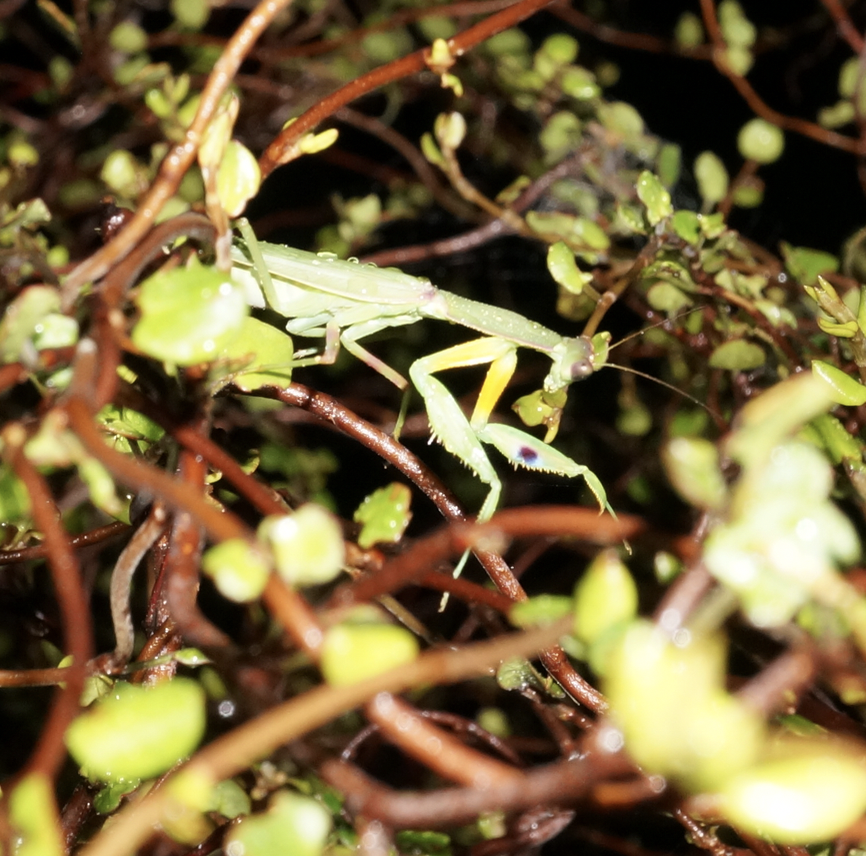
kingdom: Animalia
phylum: Arthropoda
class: Insecta
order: Mantodea
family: Mantidae
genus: Orthodera
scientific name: Orthodera novaezealandiae
